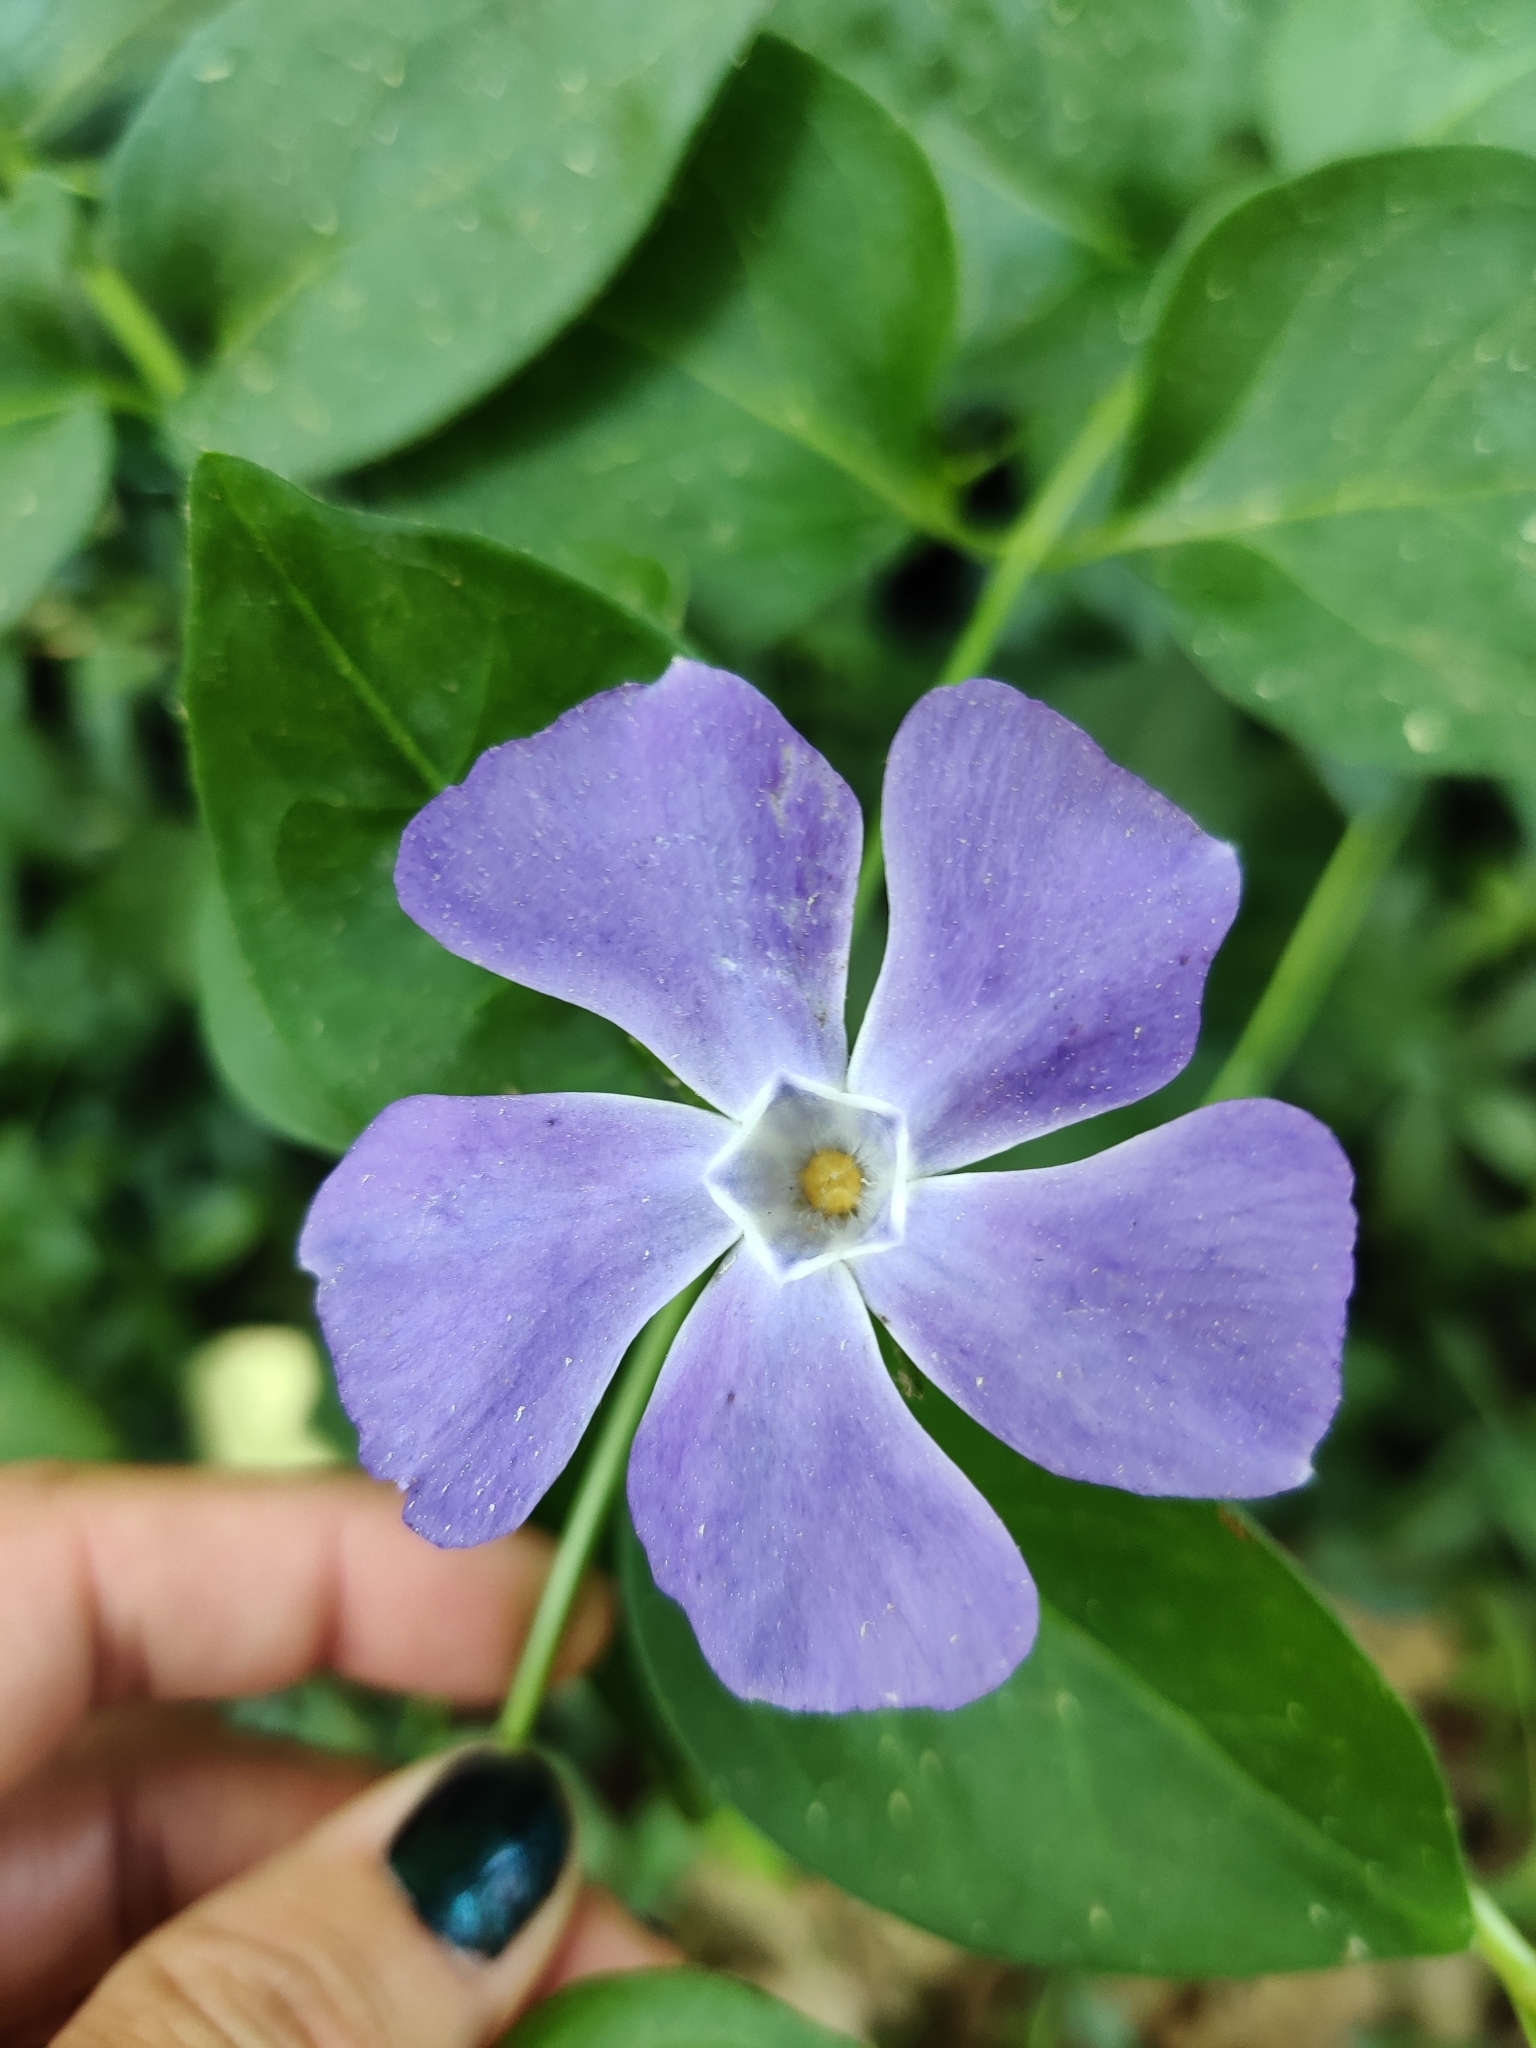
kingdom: Plantae
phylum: Tracheophyta
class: Magnoliopsida
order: Gentianales
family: Apocynaceae
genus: Vinca
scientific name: Vinca major
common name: Greater periwinkle
